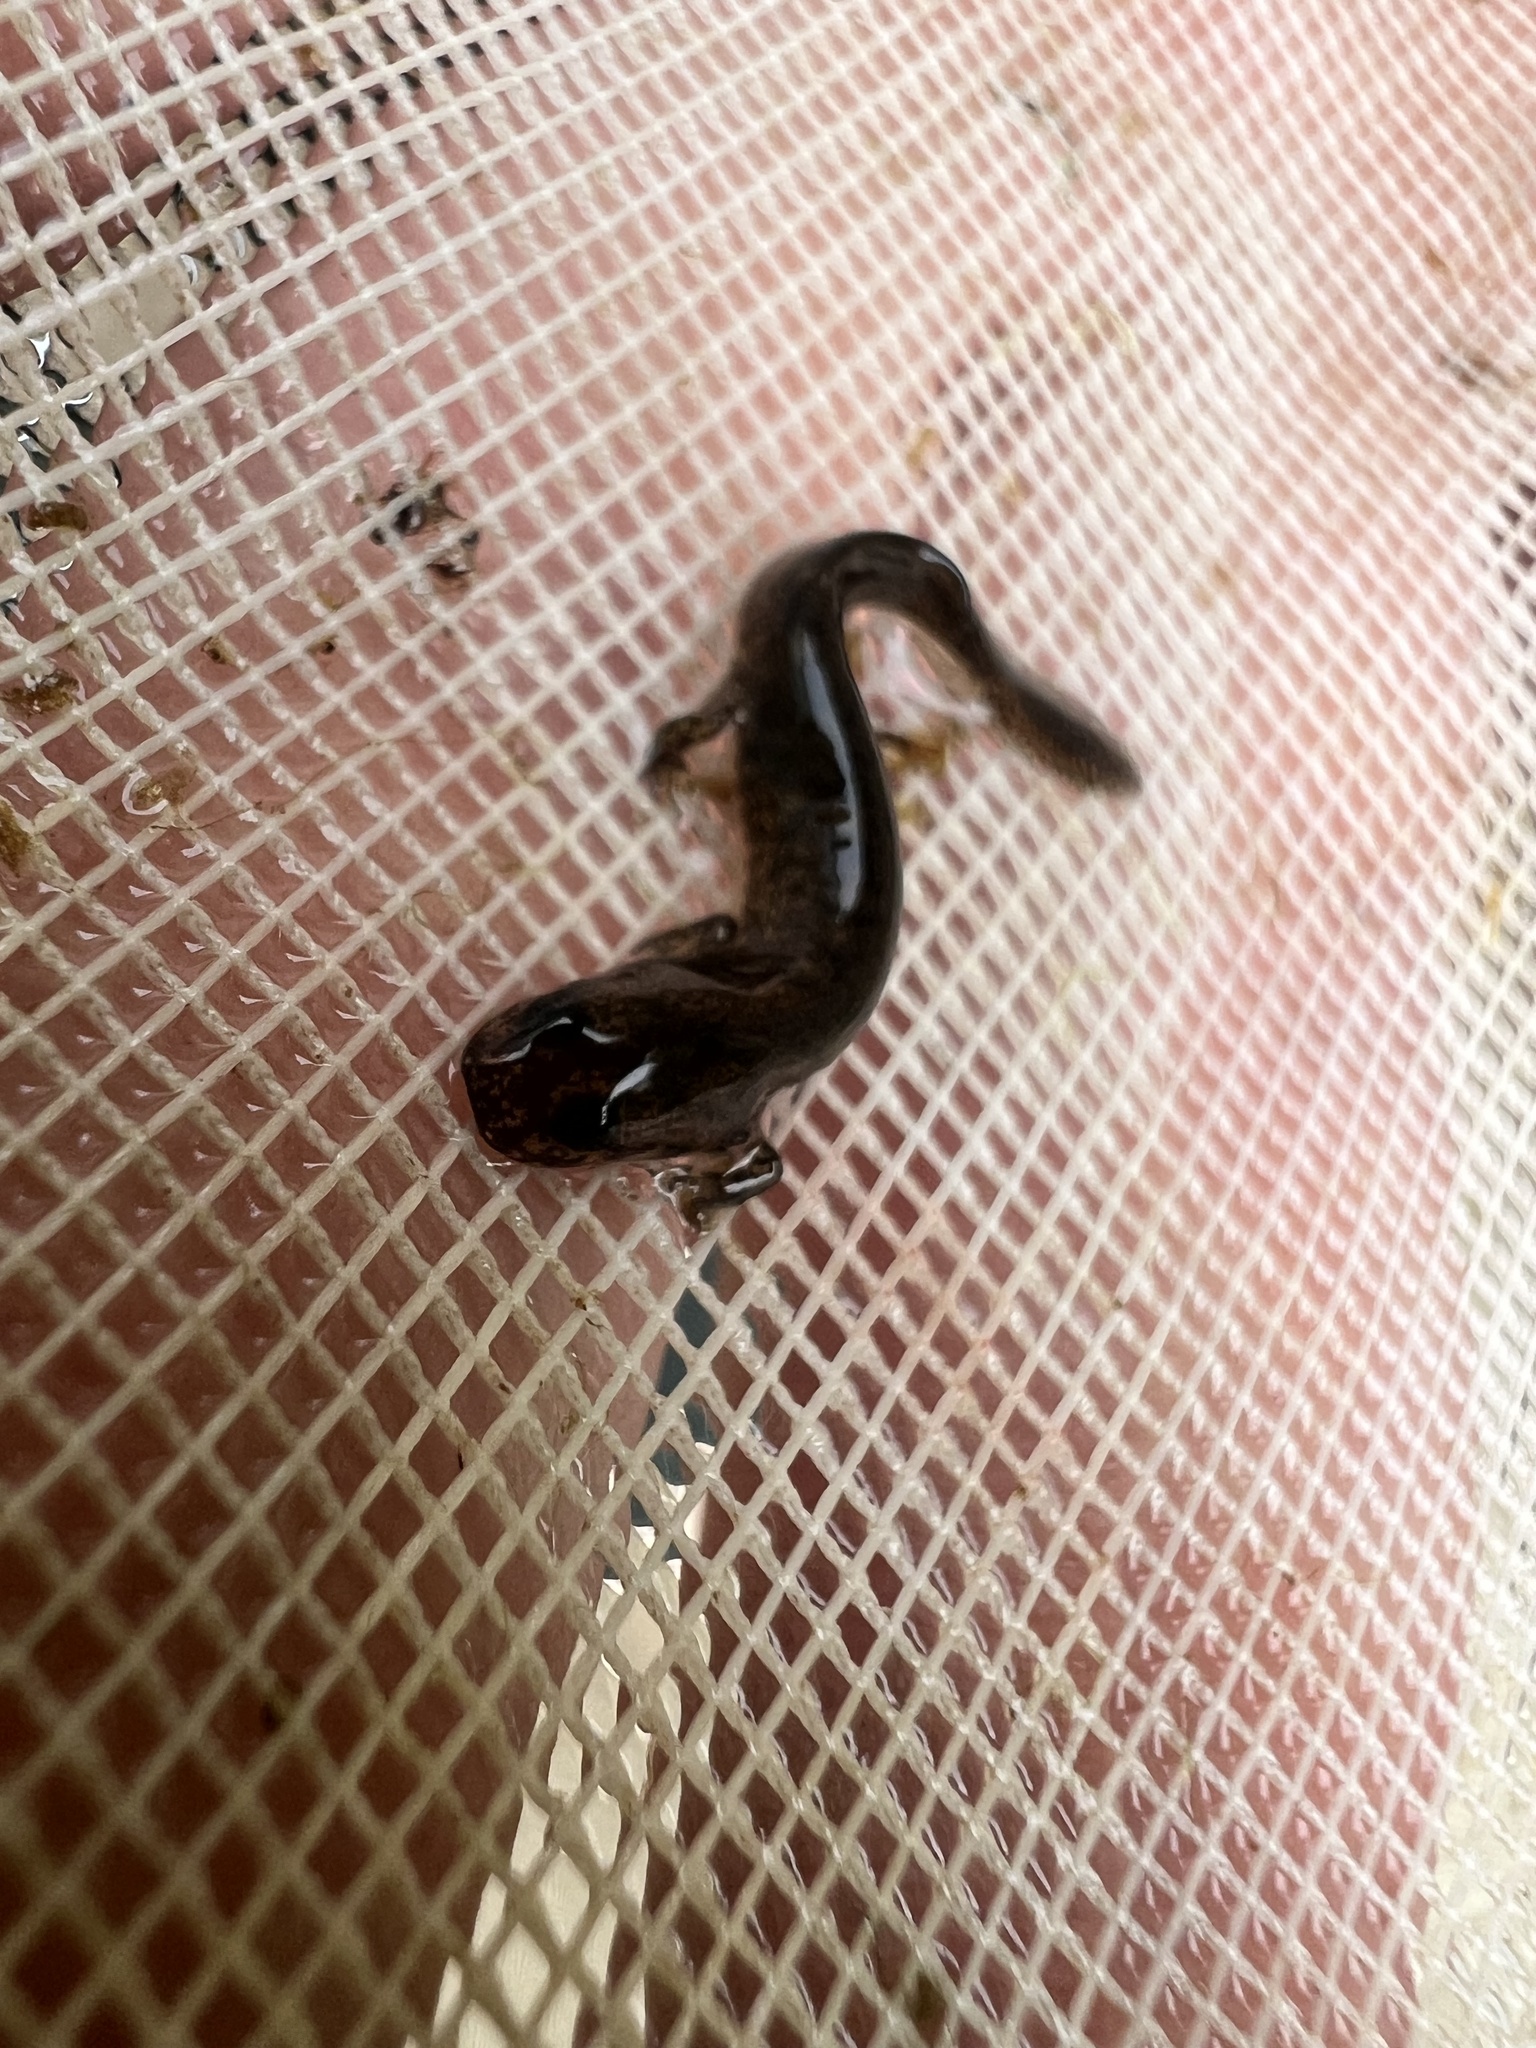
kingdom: Animalia
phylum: Chordata
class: Amphibia
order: Caudata
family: Plethodontidae
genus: Eurycea
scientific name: Eurycea cirrigera
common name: Southern two-lined salamander
